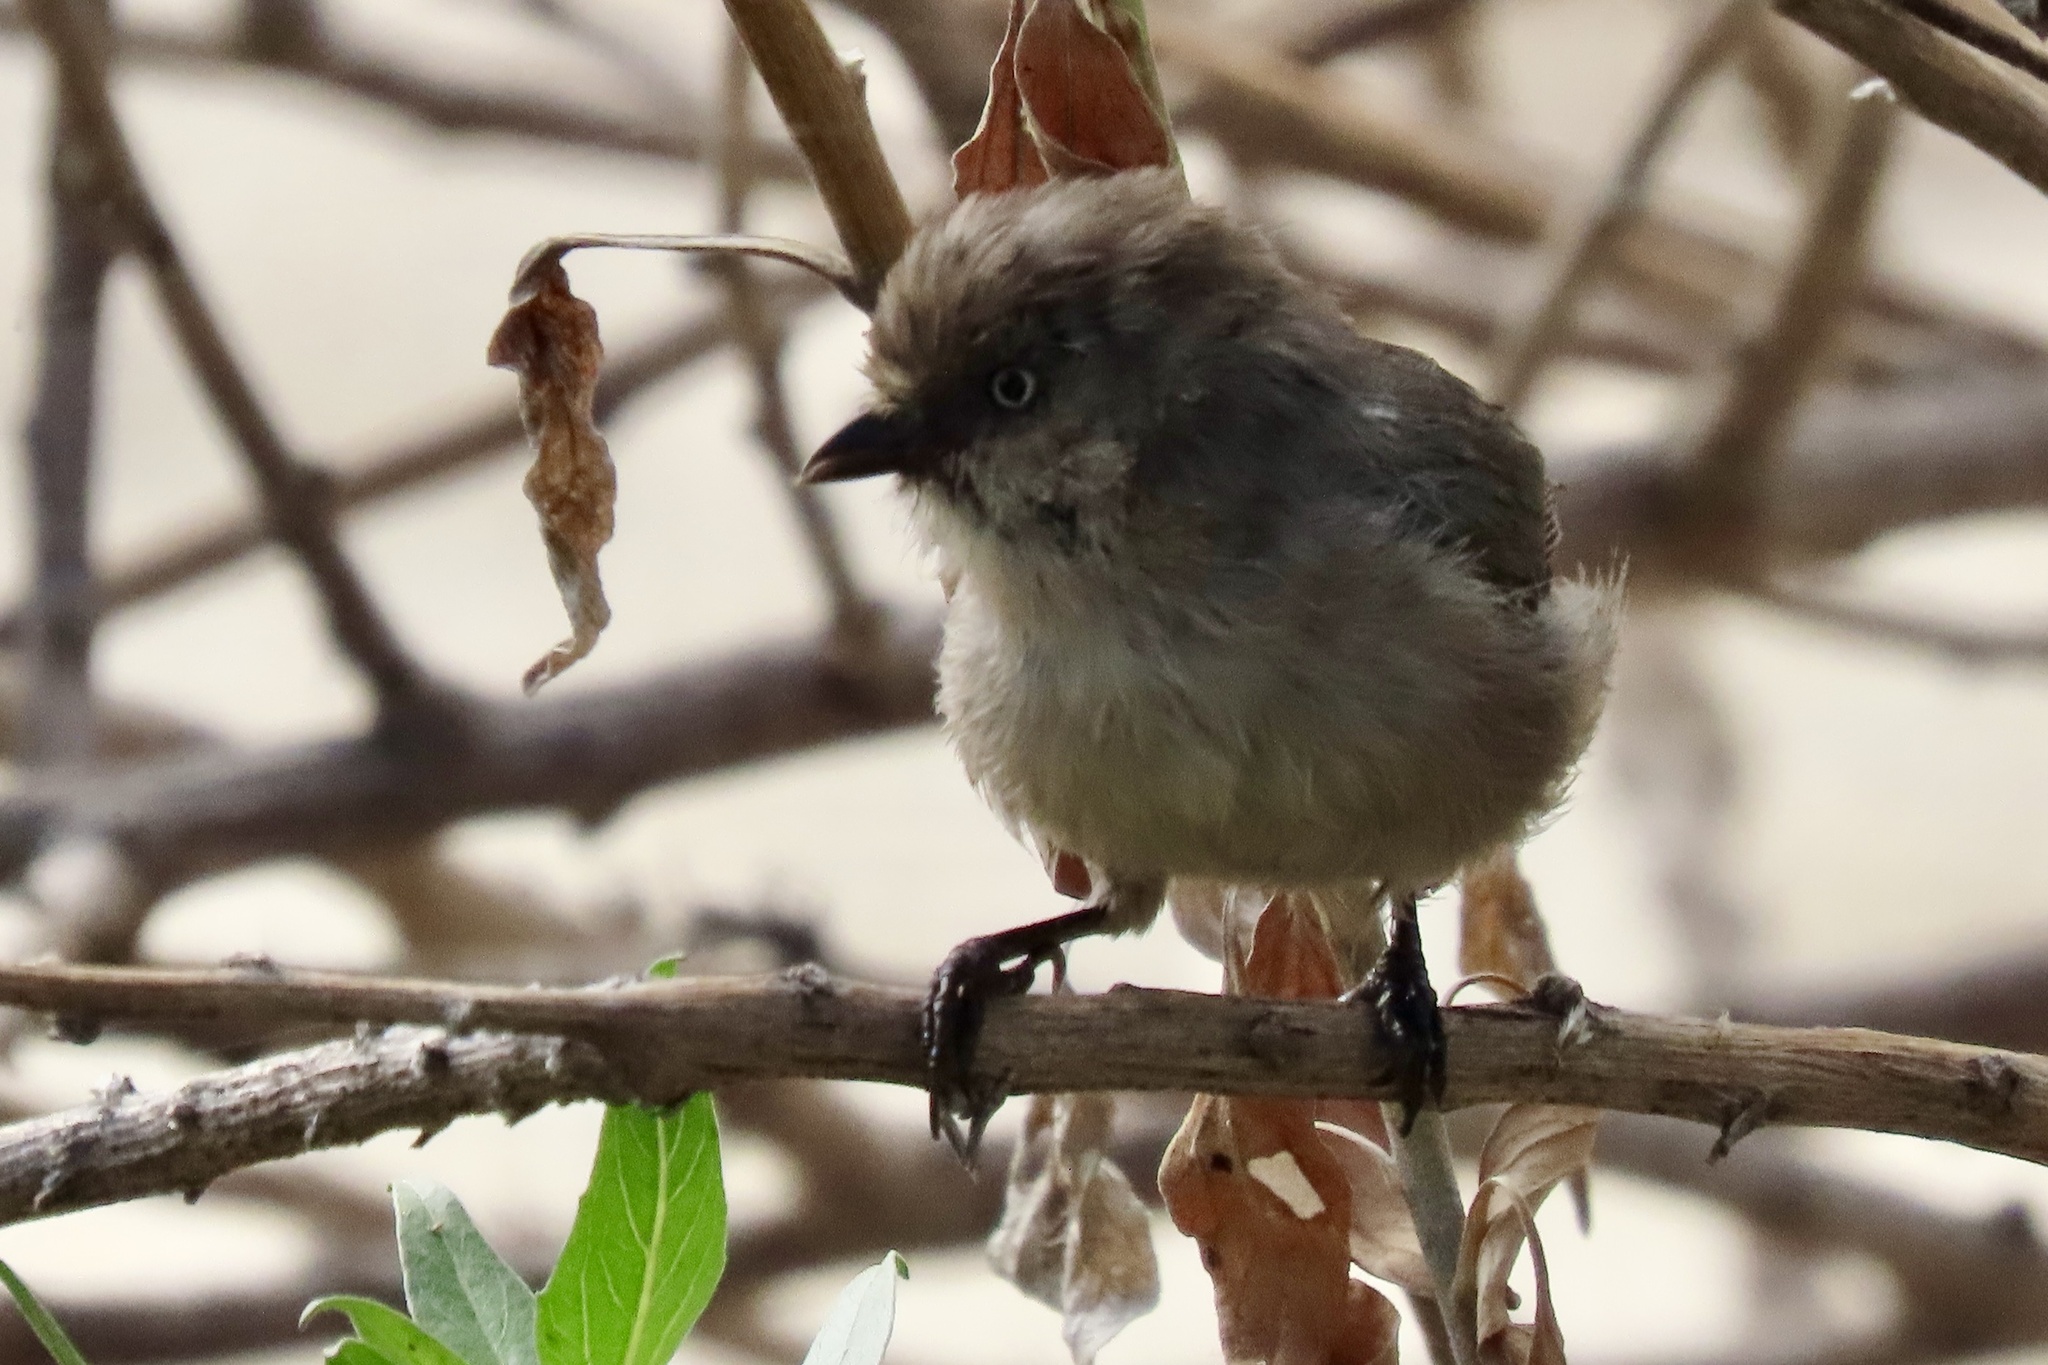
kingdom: Animalia
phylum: Chordata
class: Aves
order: Passeriformes
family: Aegithalidae
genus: Psaltriparus
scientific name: Psaltriparus minimus
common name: American bushtit
